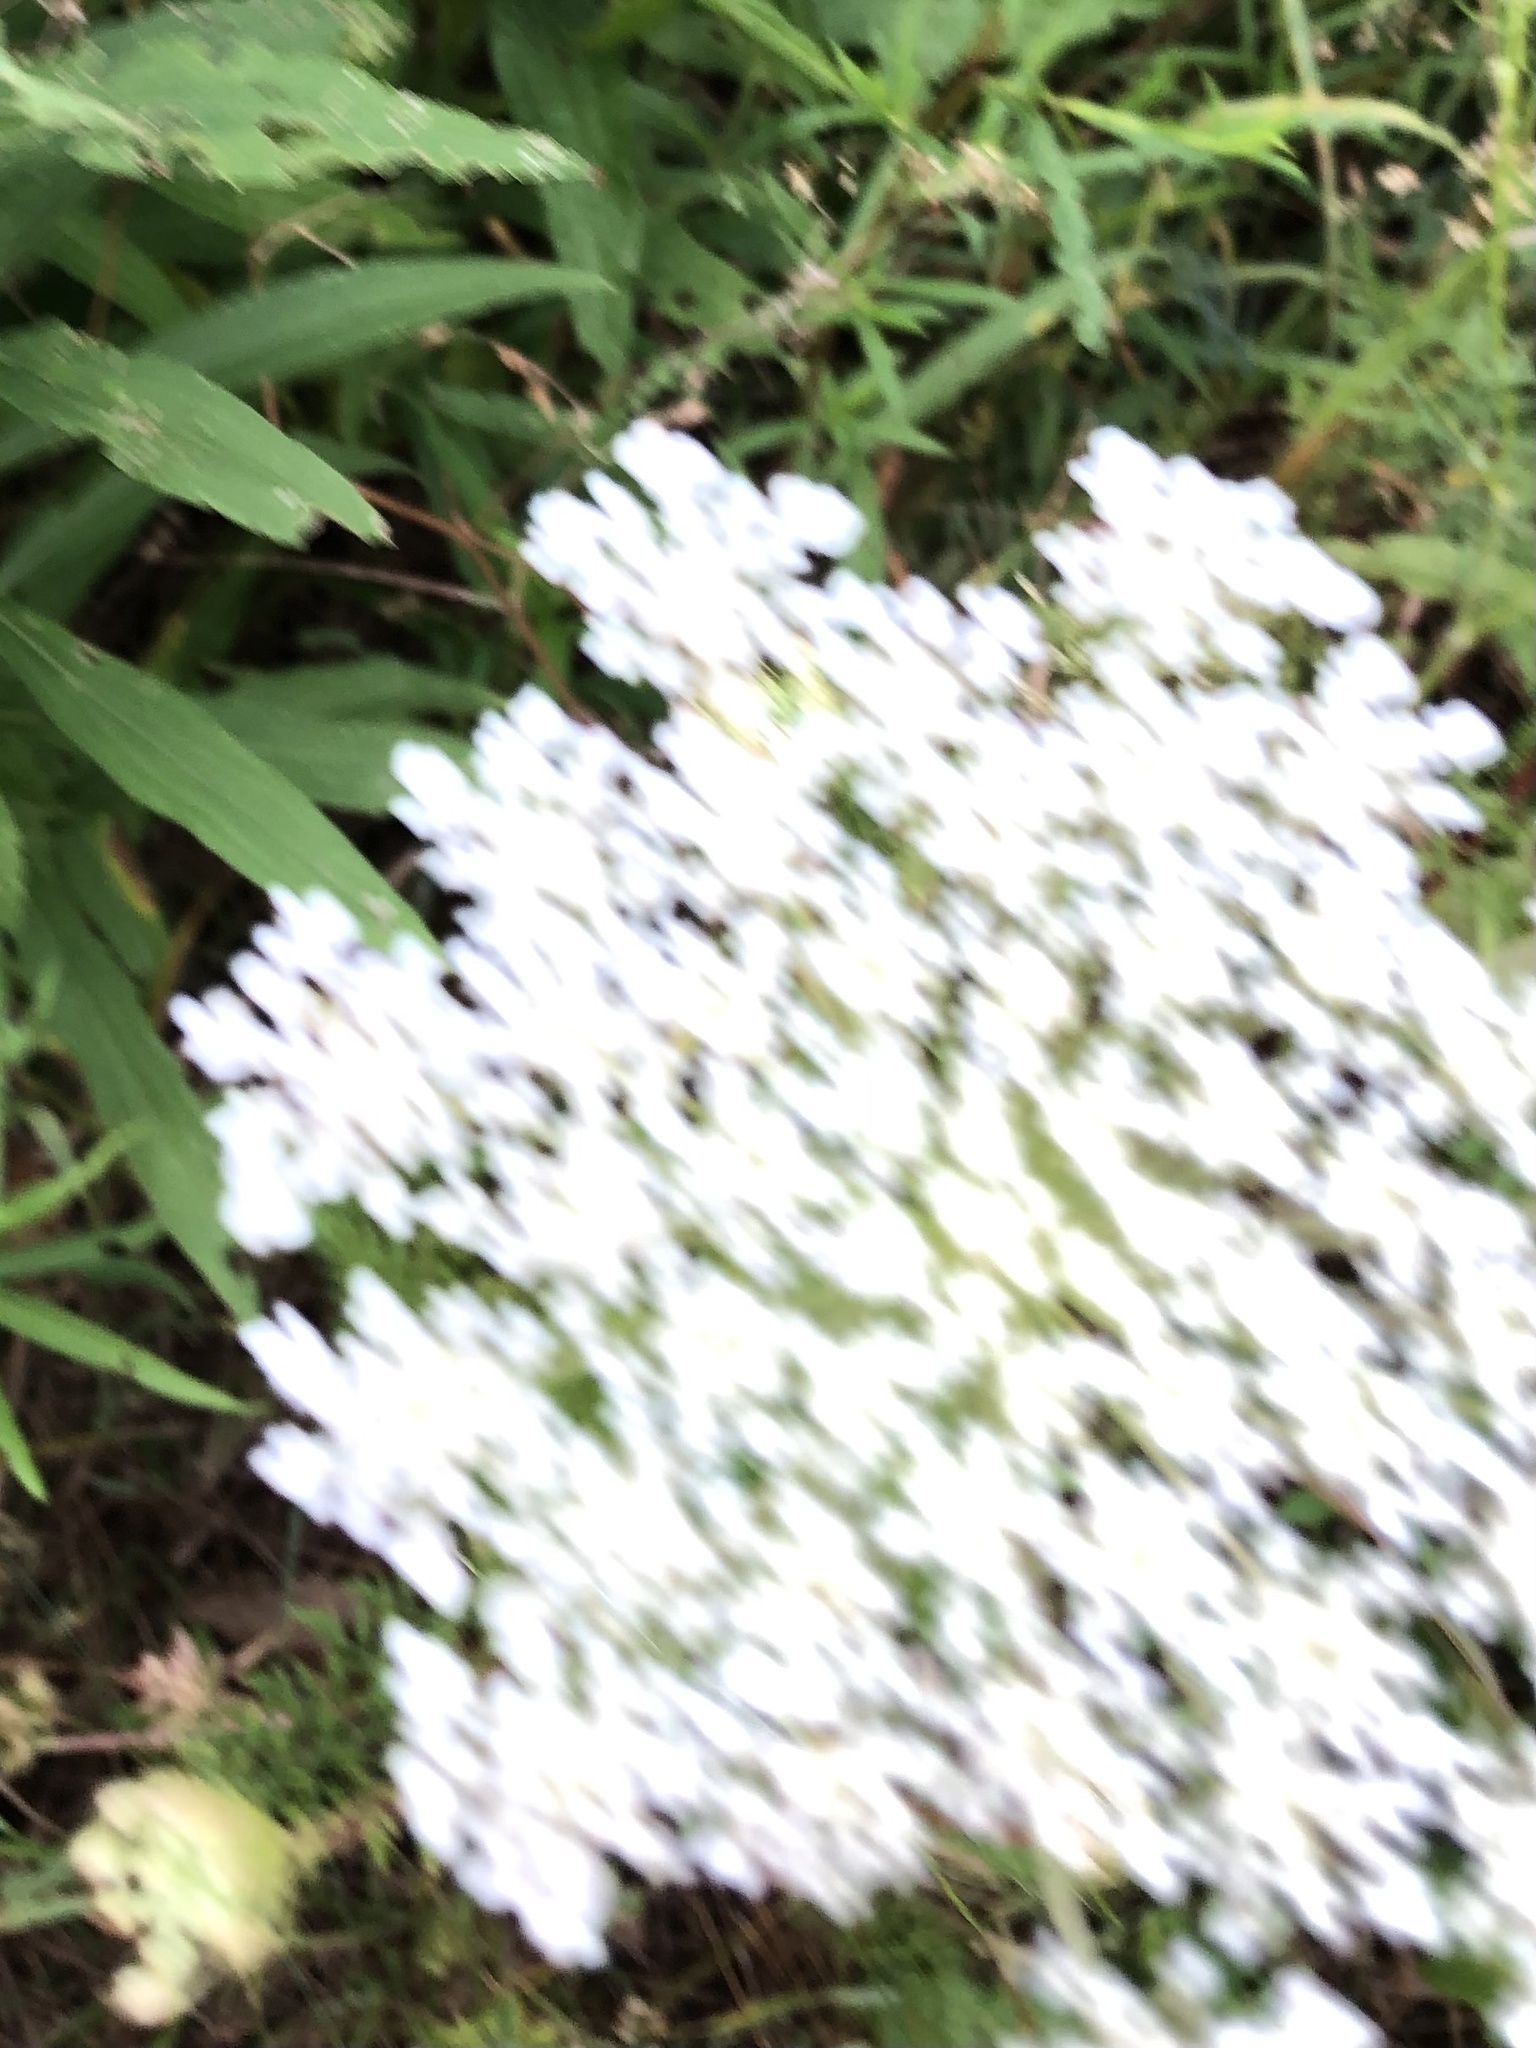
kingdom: Plantae
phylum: Tracheophyta
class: Magnoliopsida
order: Apiales
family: Apiaceae
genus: Daucus
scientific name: Daucus carota
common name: Wild carrot
